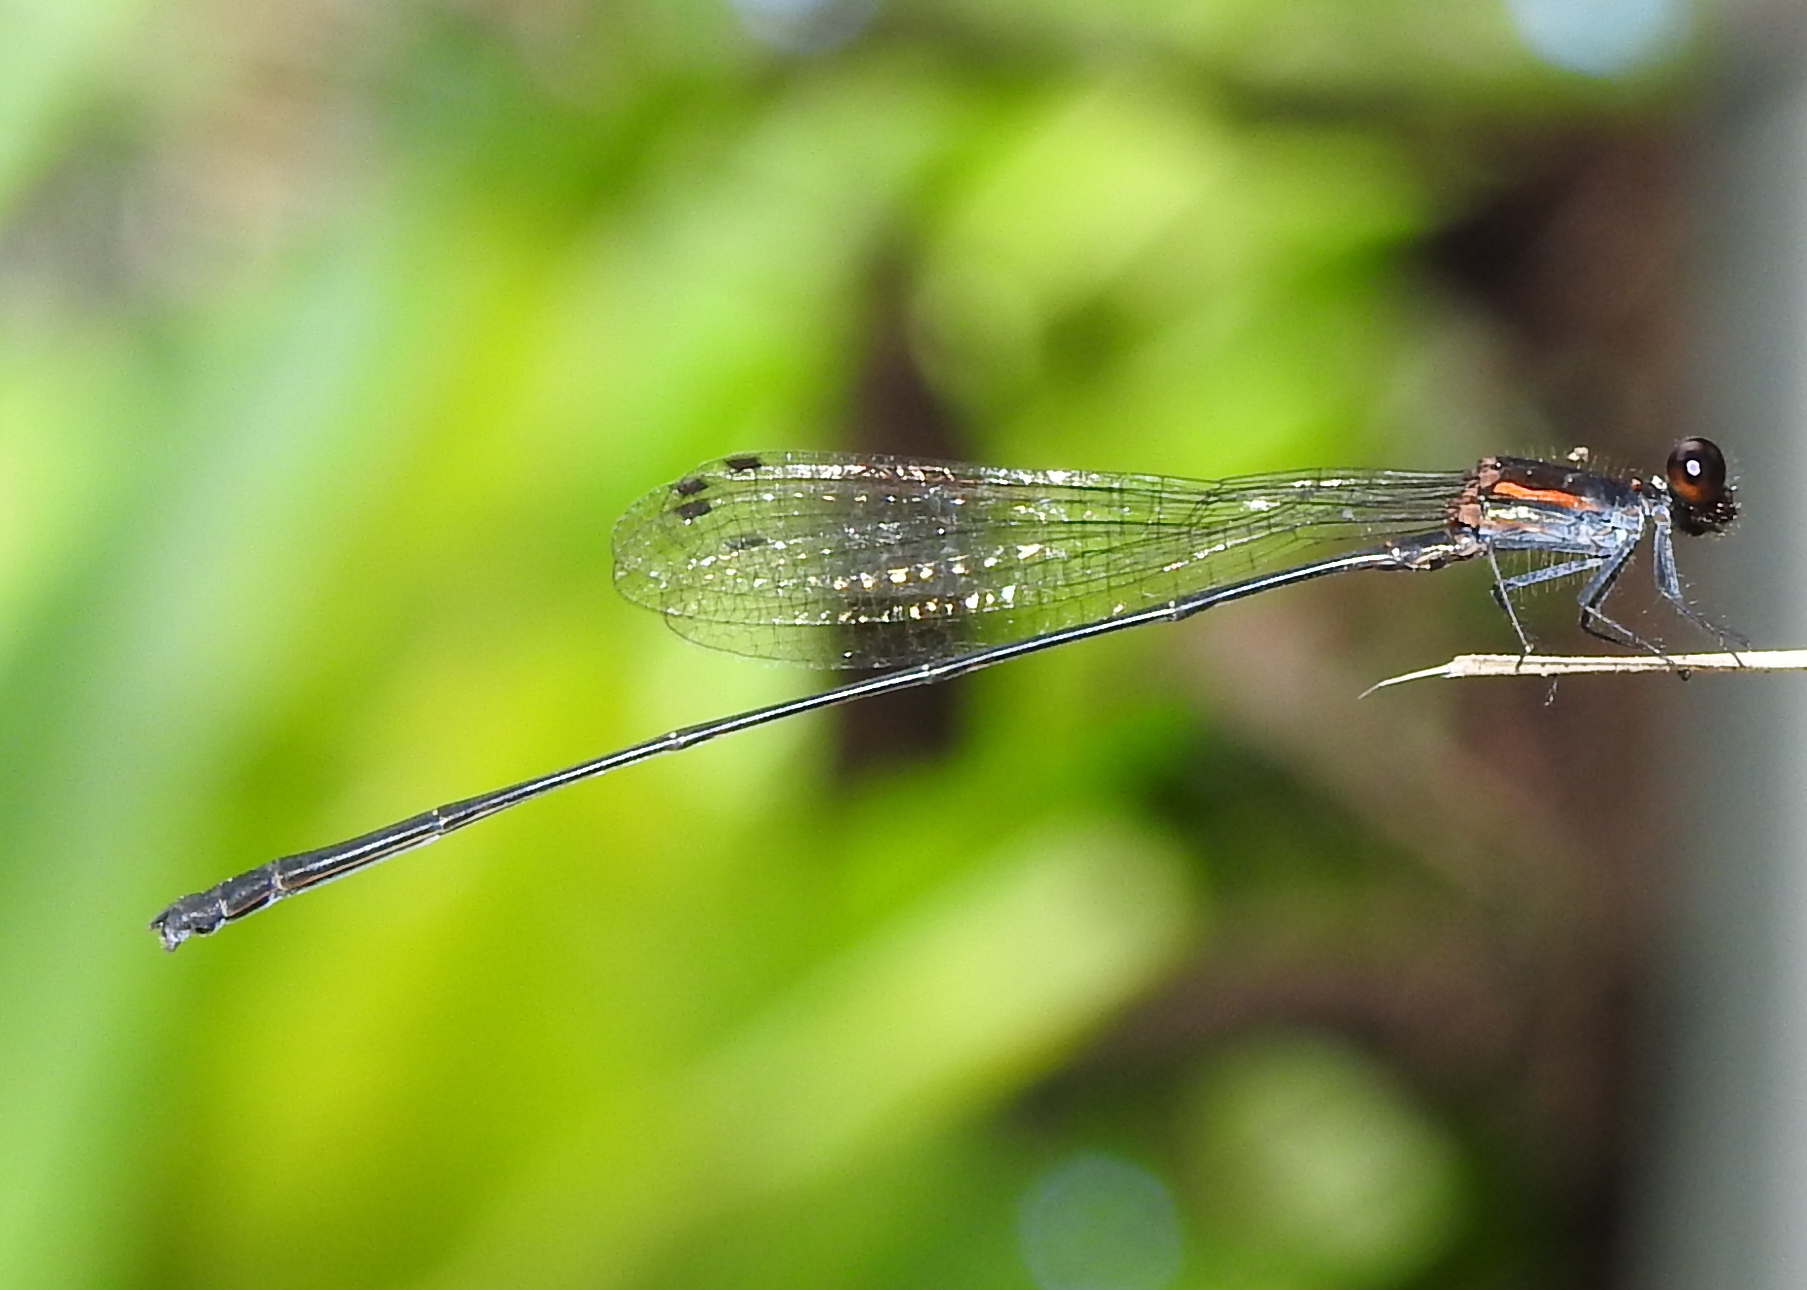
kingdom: Animalia
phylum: Arthropoda
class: Insecta
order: Odonata
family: Platycnemididae
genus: Prodasineura
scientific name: Prodasineura verticalis
